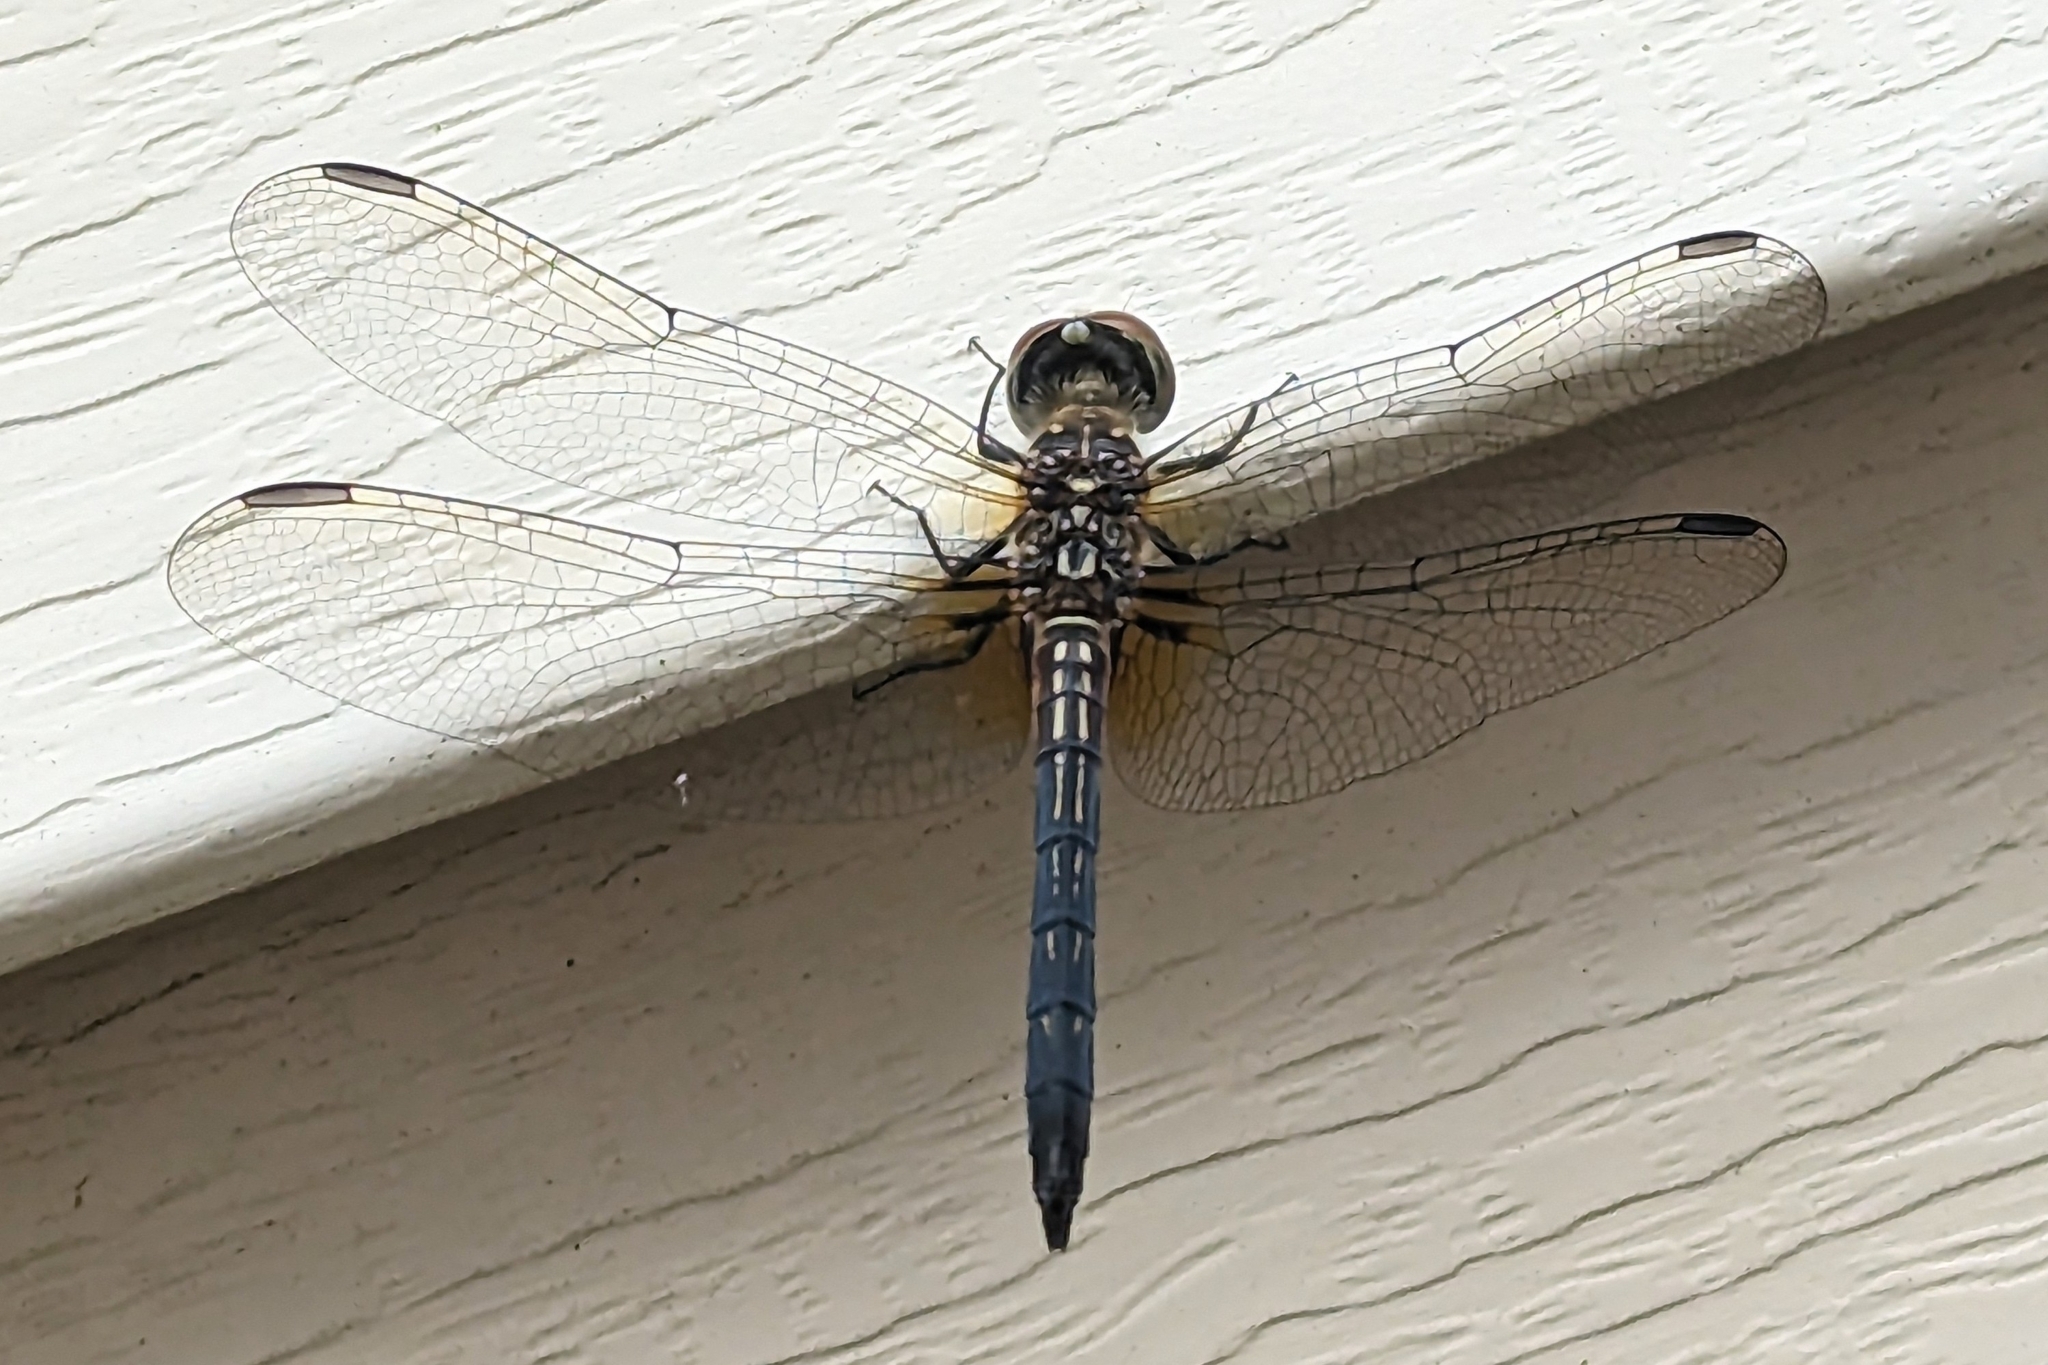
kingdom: Animalia
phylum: Arthropoda
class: Insecta
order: Odonata
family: Libellulidae
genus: Pachydiplax
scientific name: Pachydiplax longipennis
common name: Blue dasher
